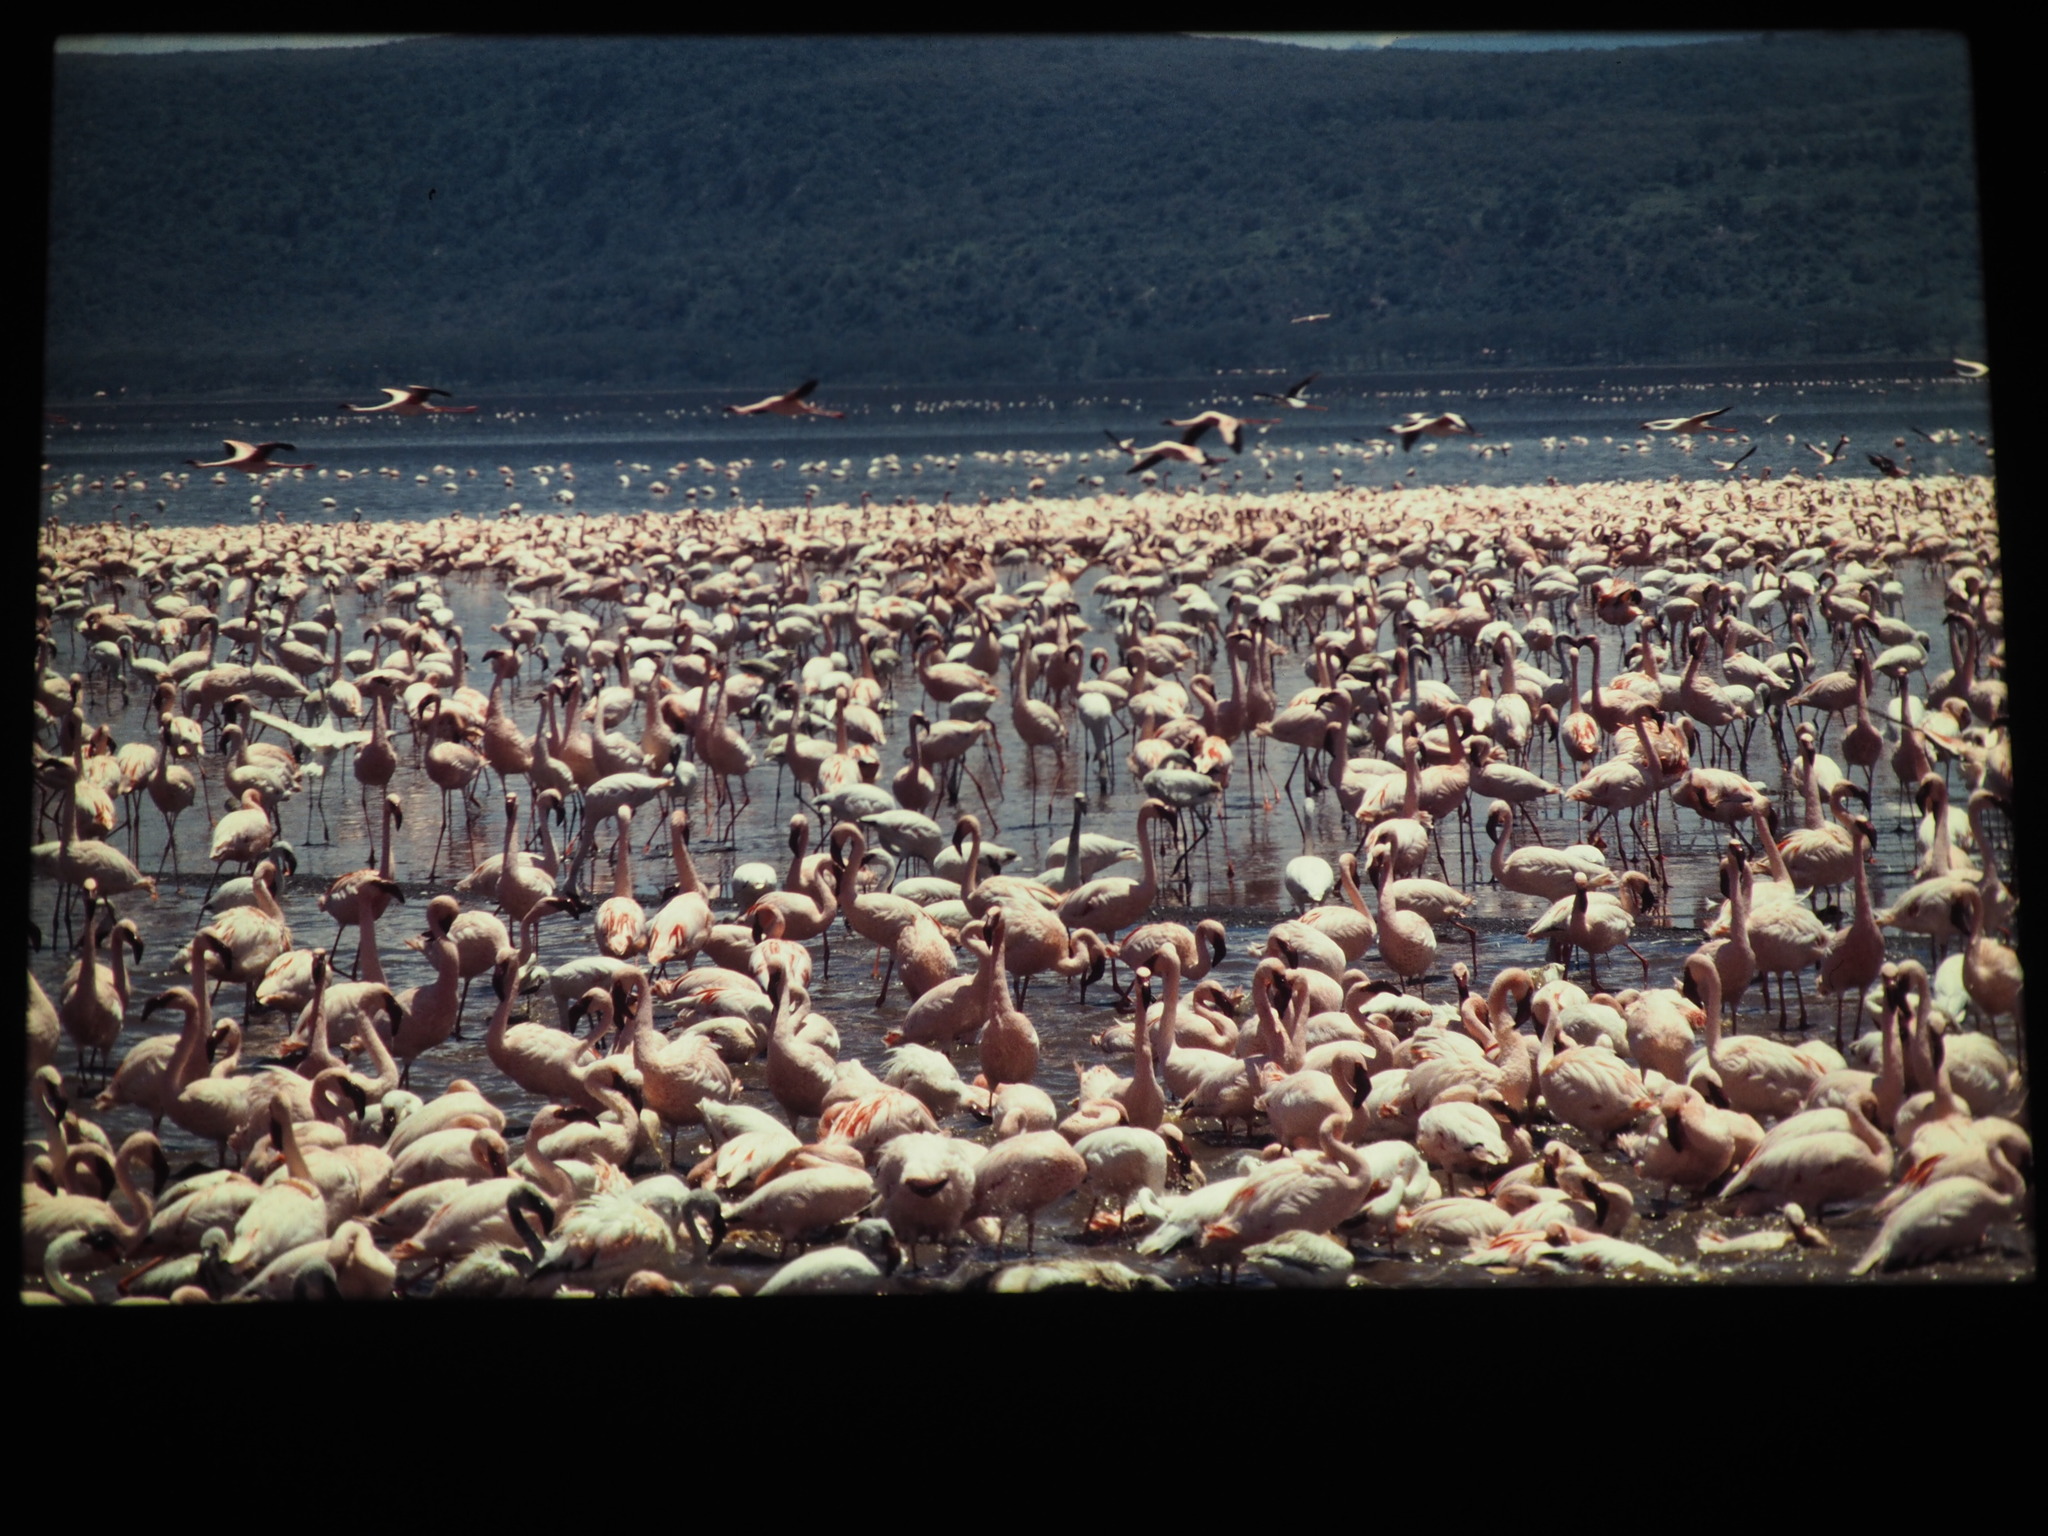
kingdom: Animalia
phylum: Chordata
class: Aves
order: Phoenicopteriformes
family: Phoenicopteridae
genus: Phoeniconaias
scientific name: Phoeniconaias minor
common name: Lesser flamingo
